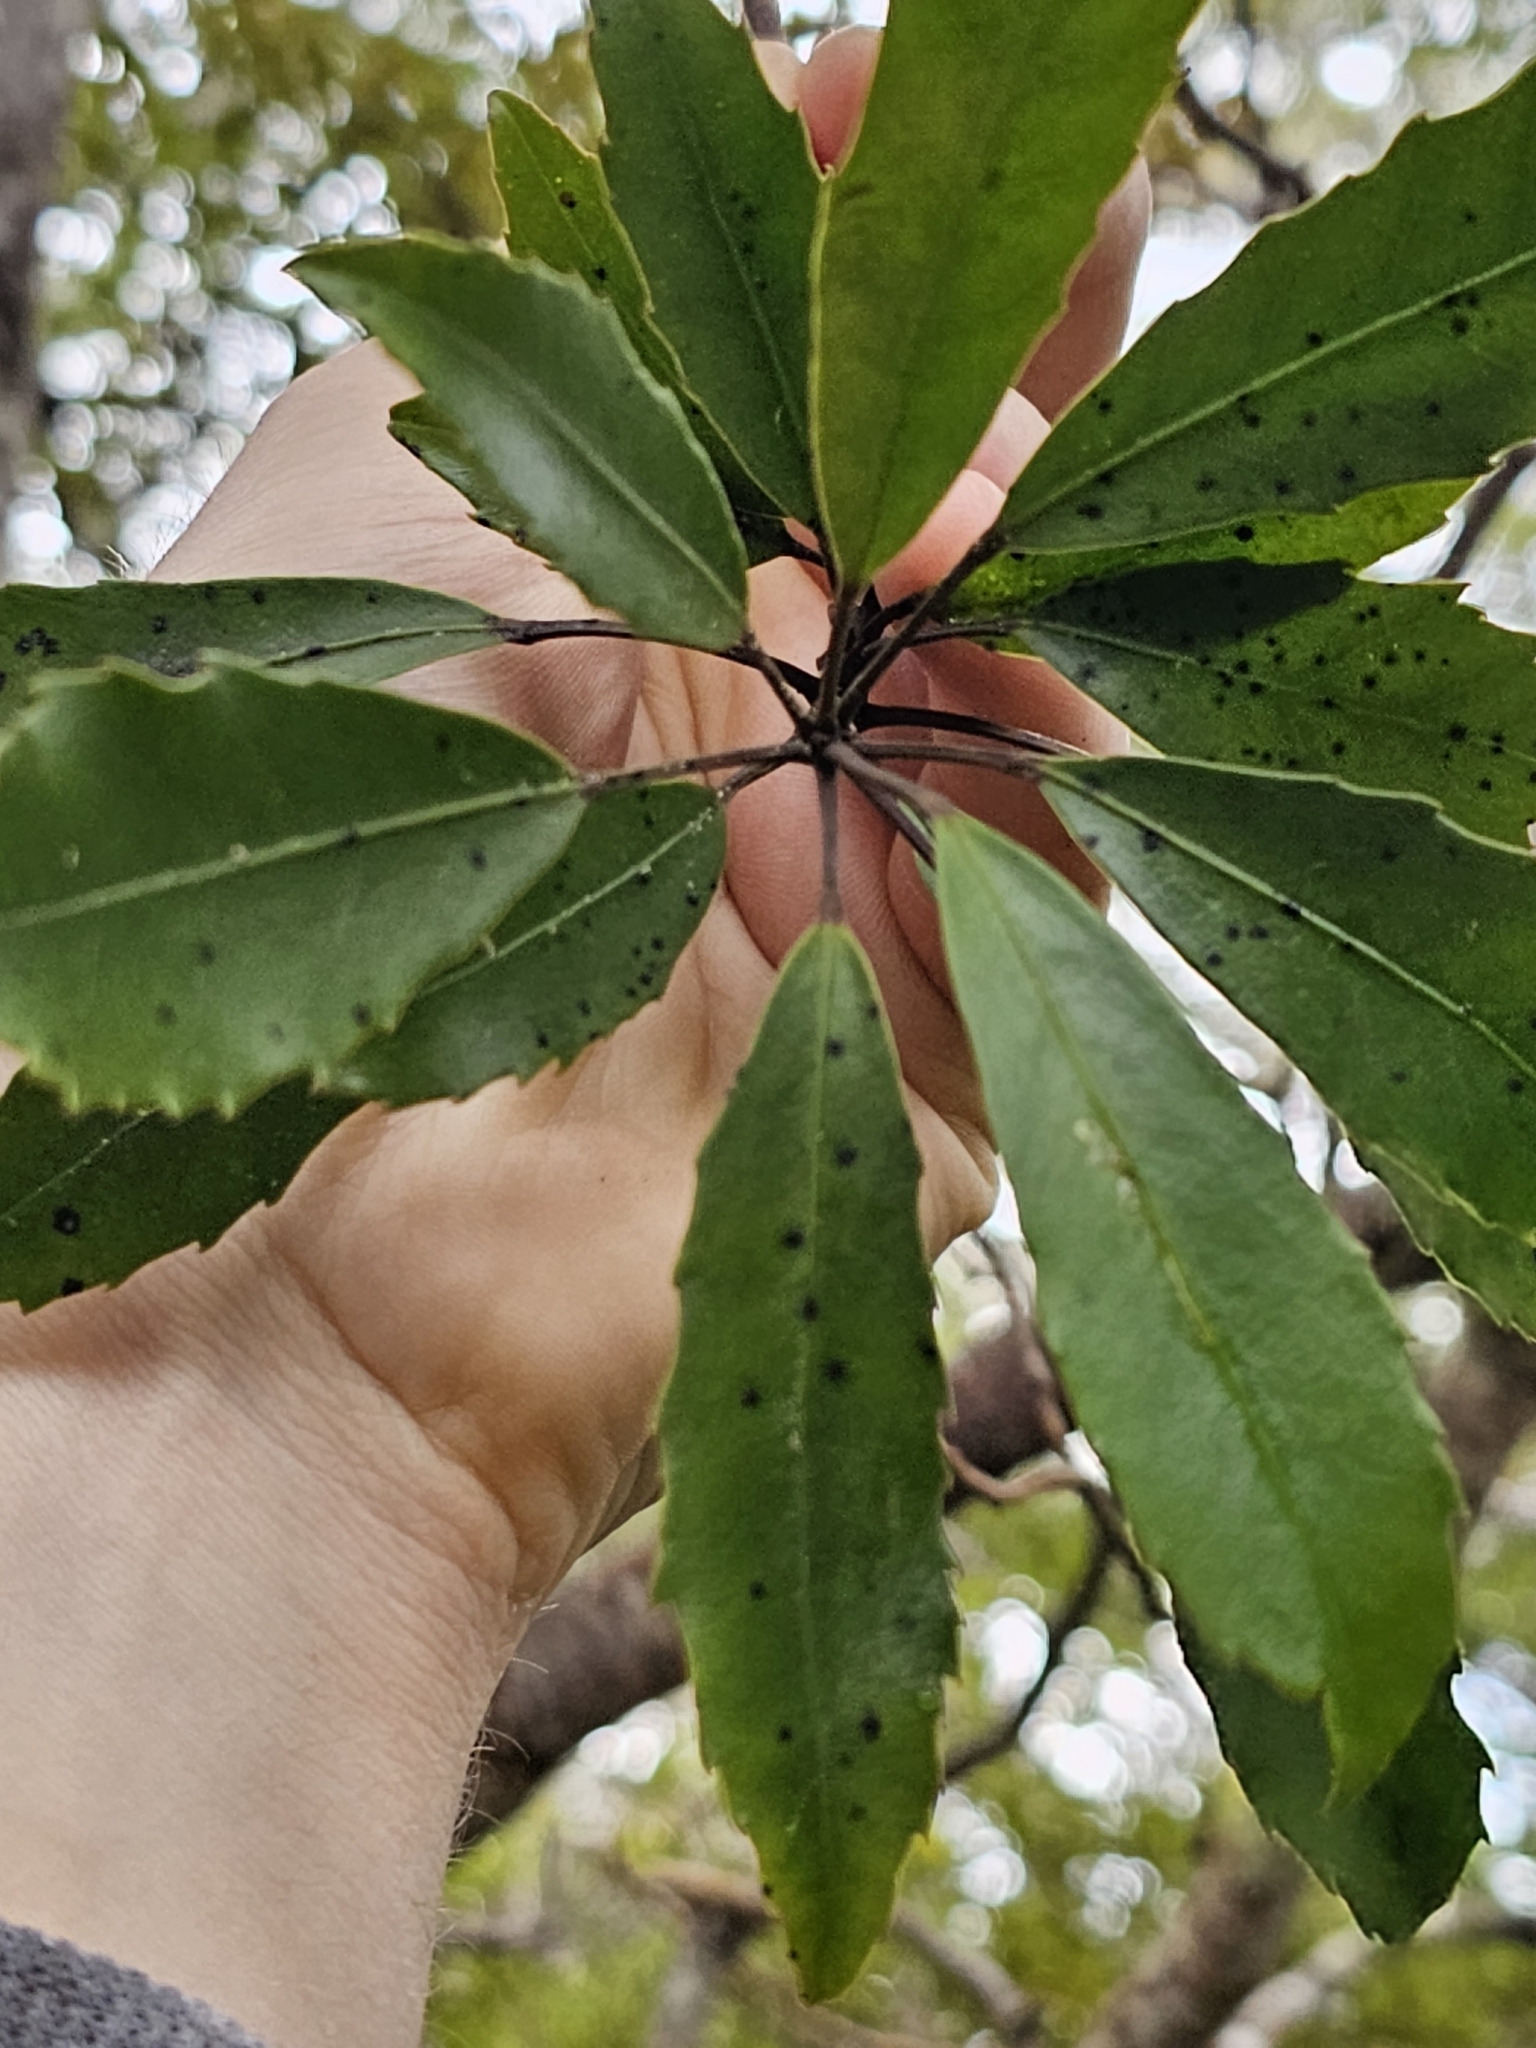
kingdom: Plantae
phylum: Tracheophyta
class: Magnoliopsida
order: Apiales
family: Araliaceae
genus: Raukaua
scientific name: Raukaua simplex
